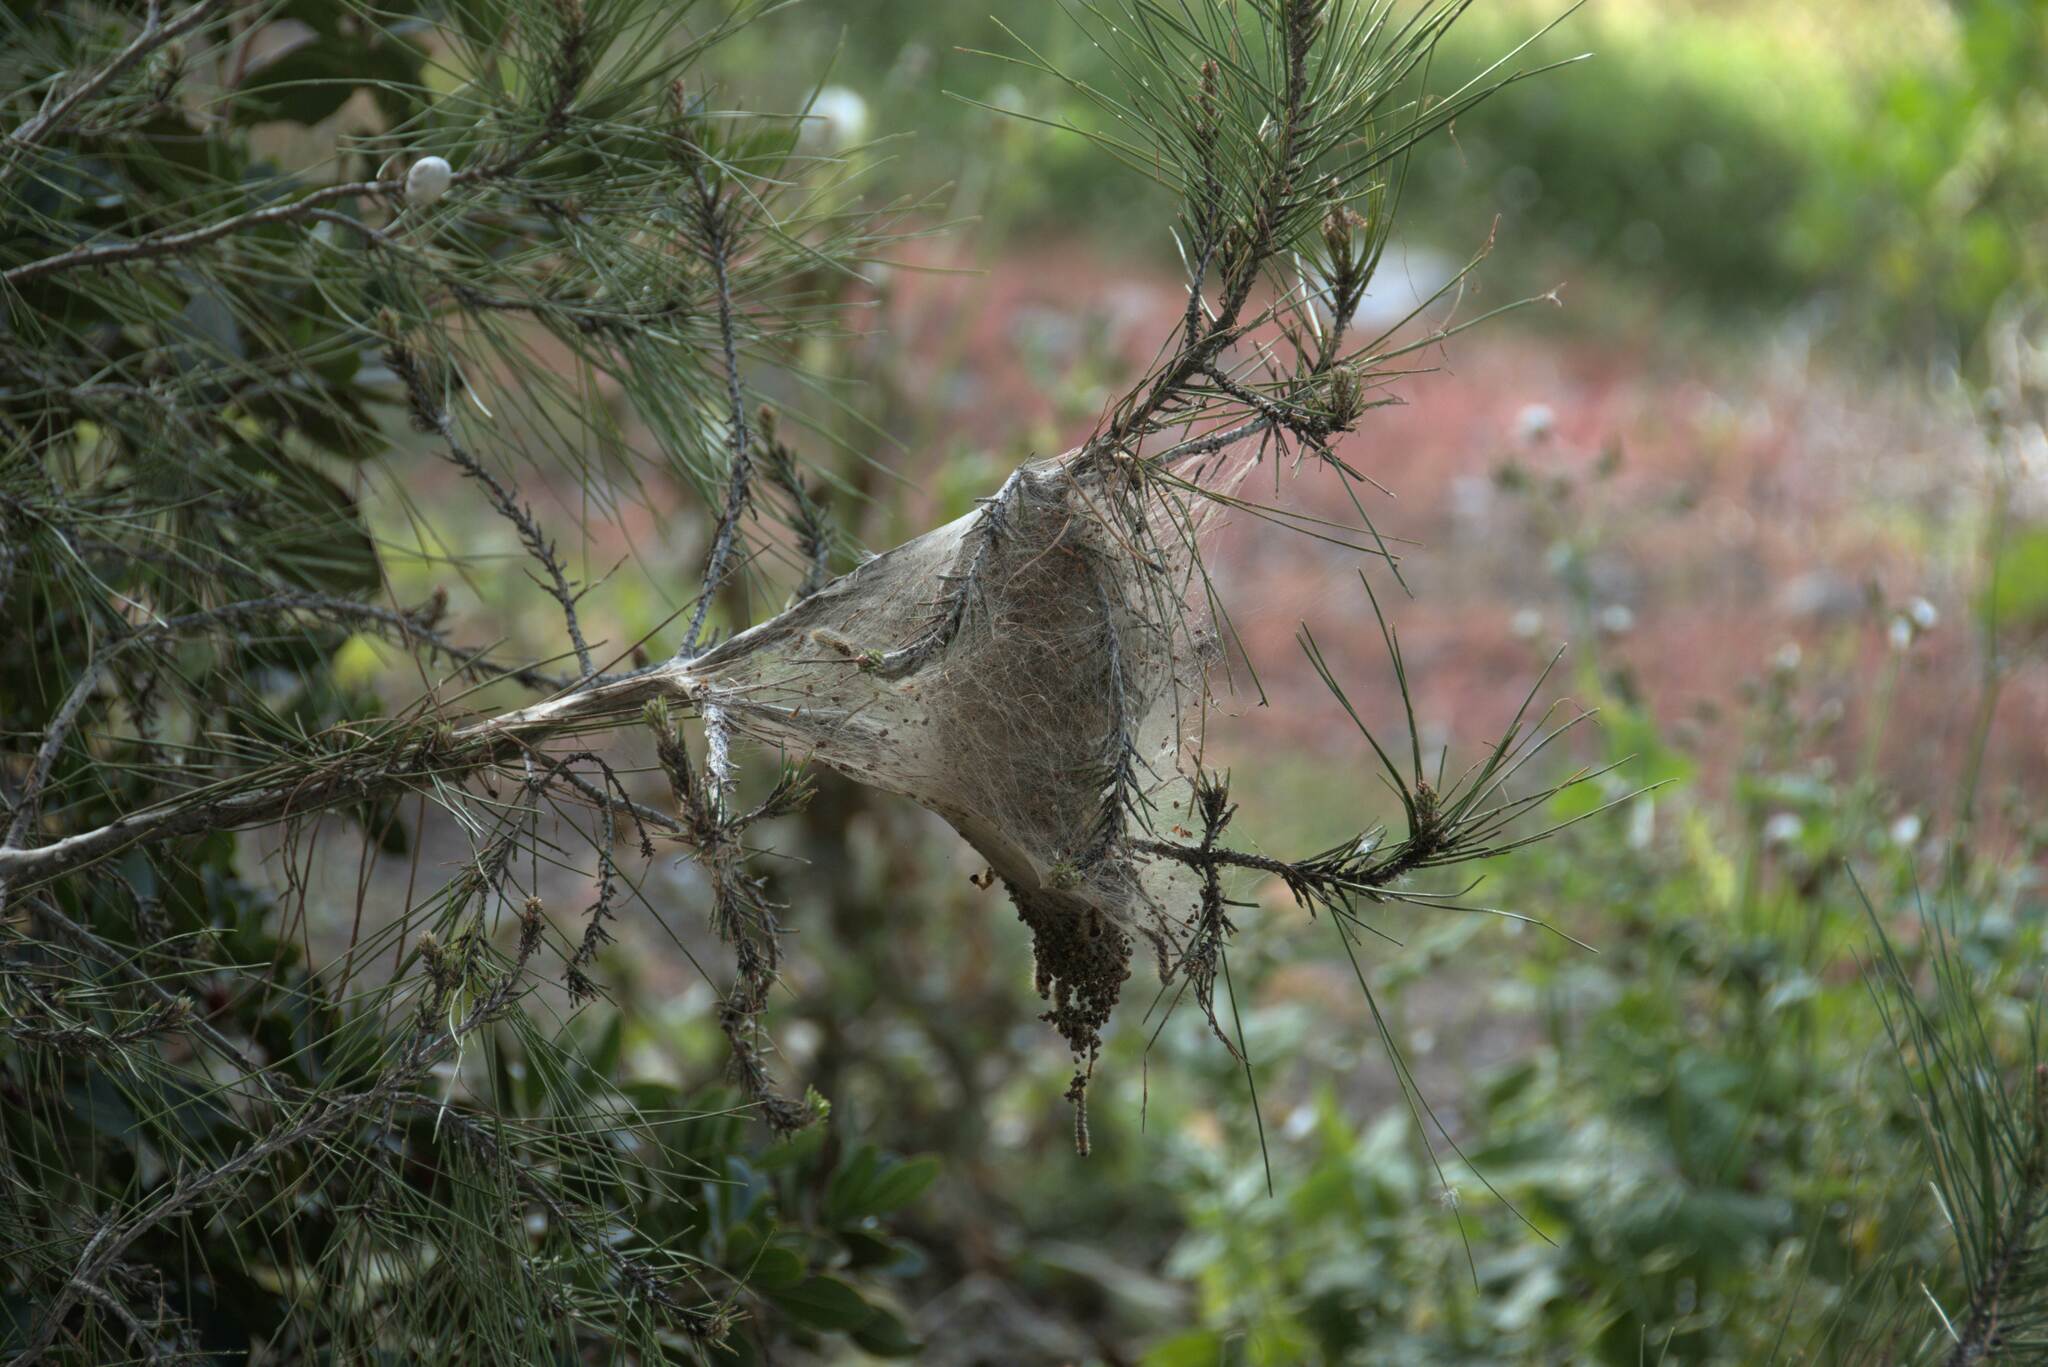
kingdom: Animalia
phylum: Arthropoda
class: Insecta
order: Lepidoptera
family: Notodontidae
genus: Thaumetopoea
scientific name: Thaumetopoea
